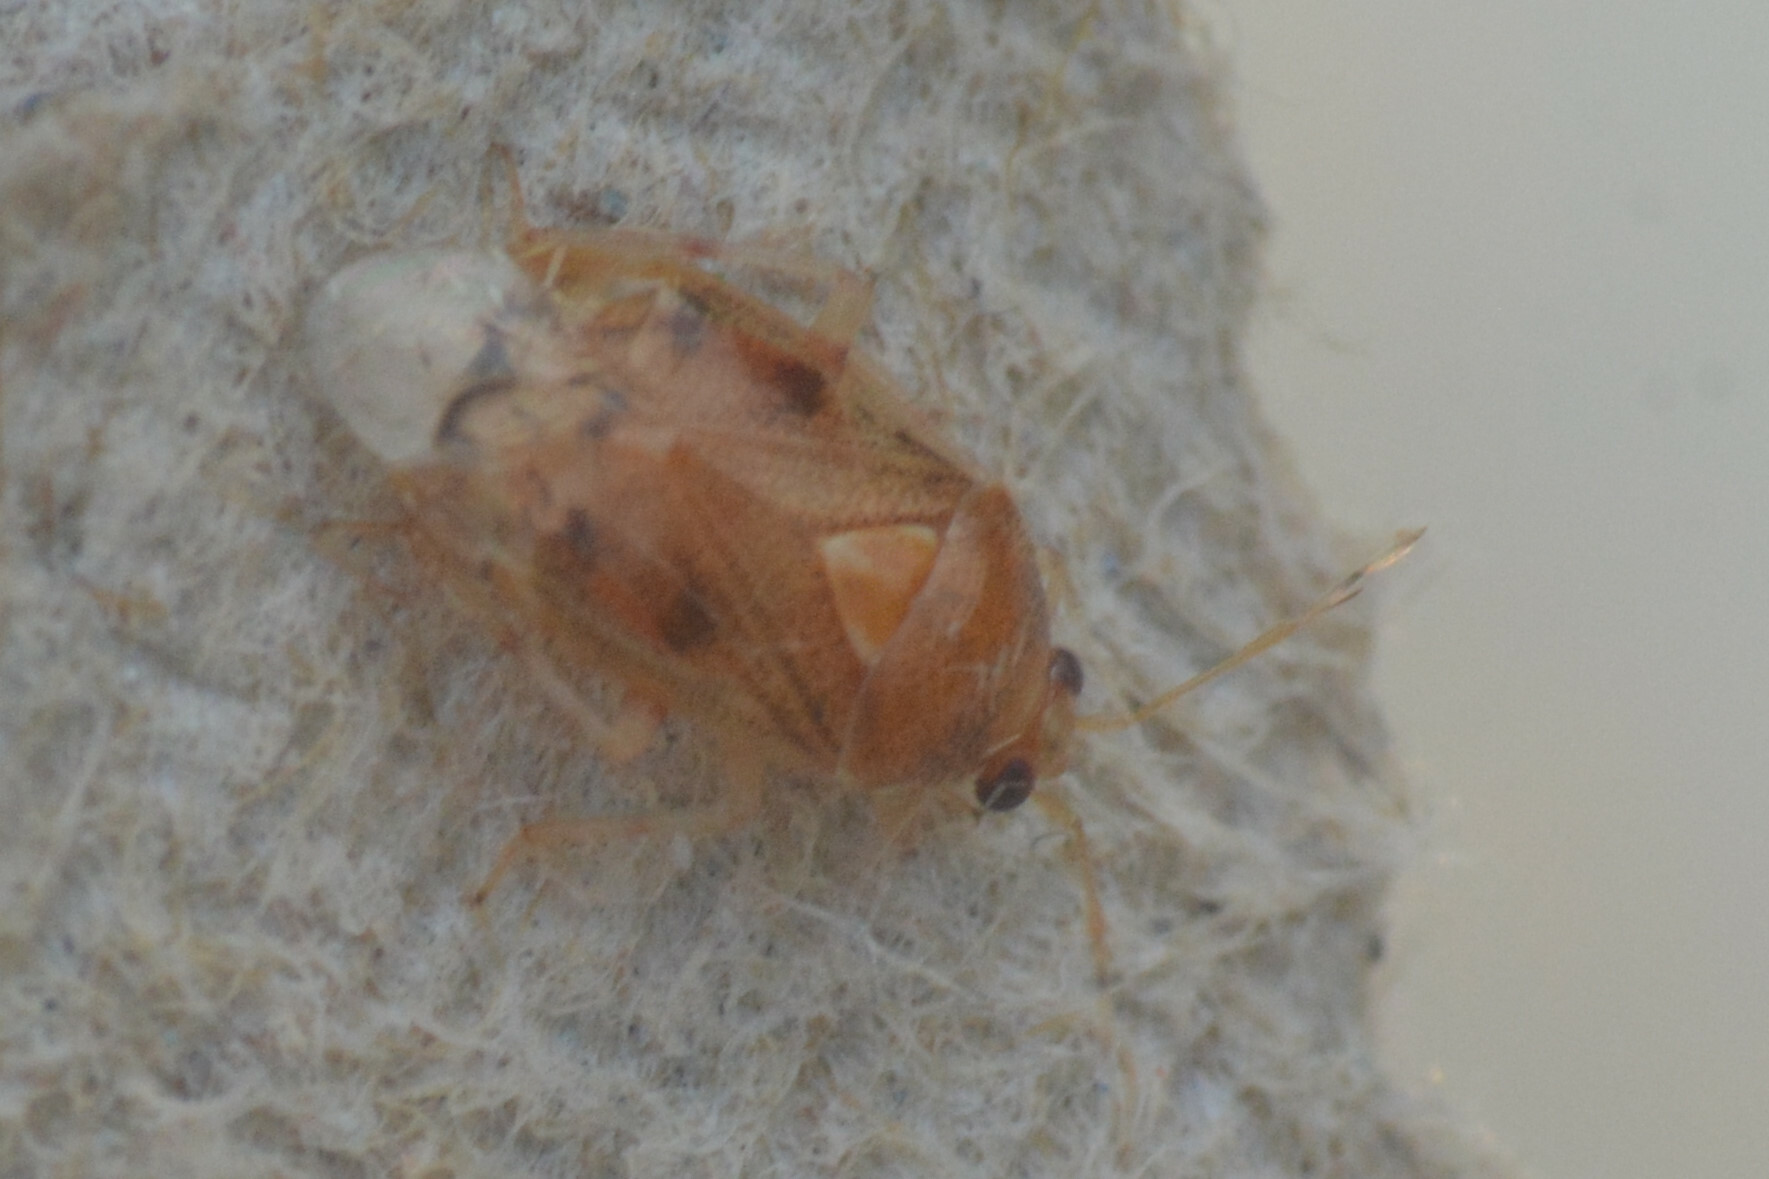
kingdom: Animalia
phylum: Arthropoda
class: Insecta
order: Hemiptera
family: Miridae
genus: Deraeocoris
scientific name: Deraeocoris lutescens
